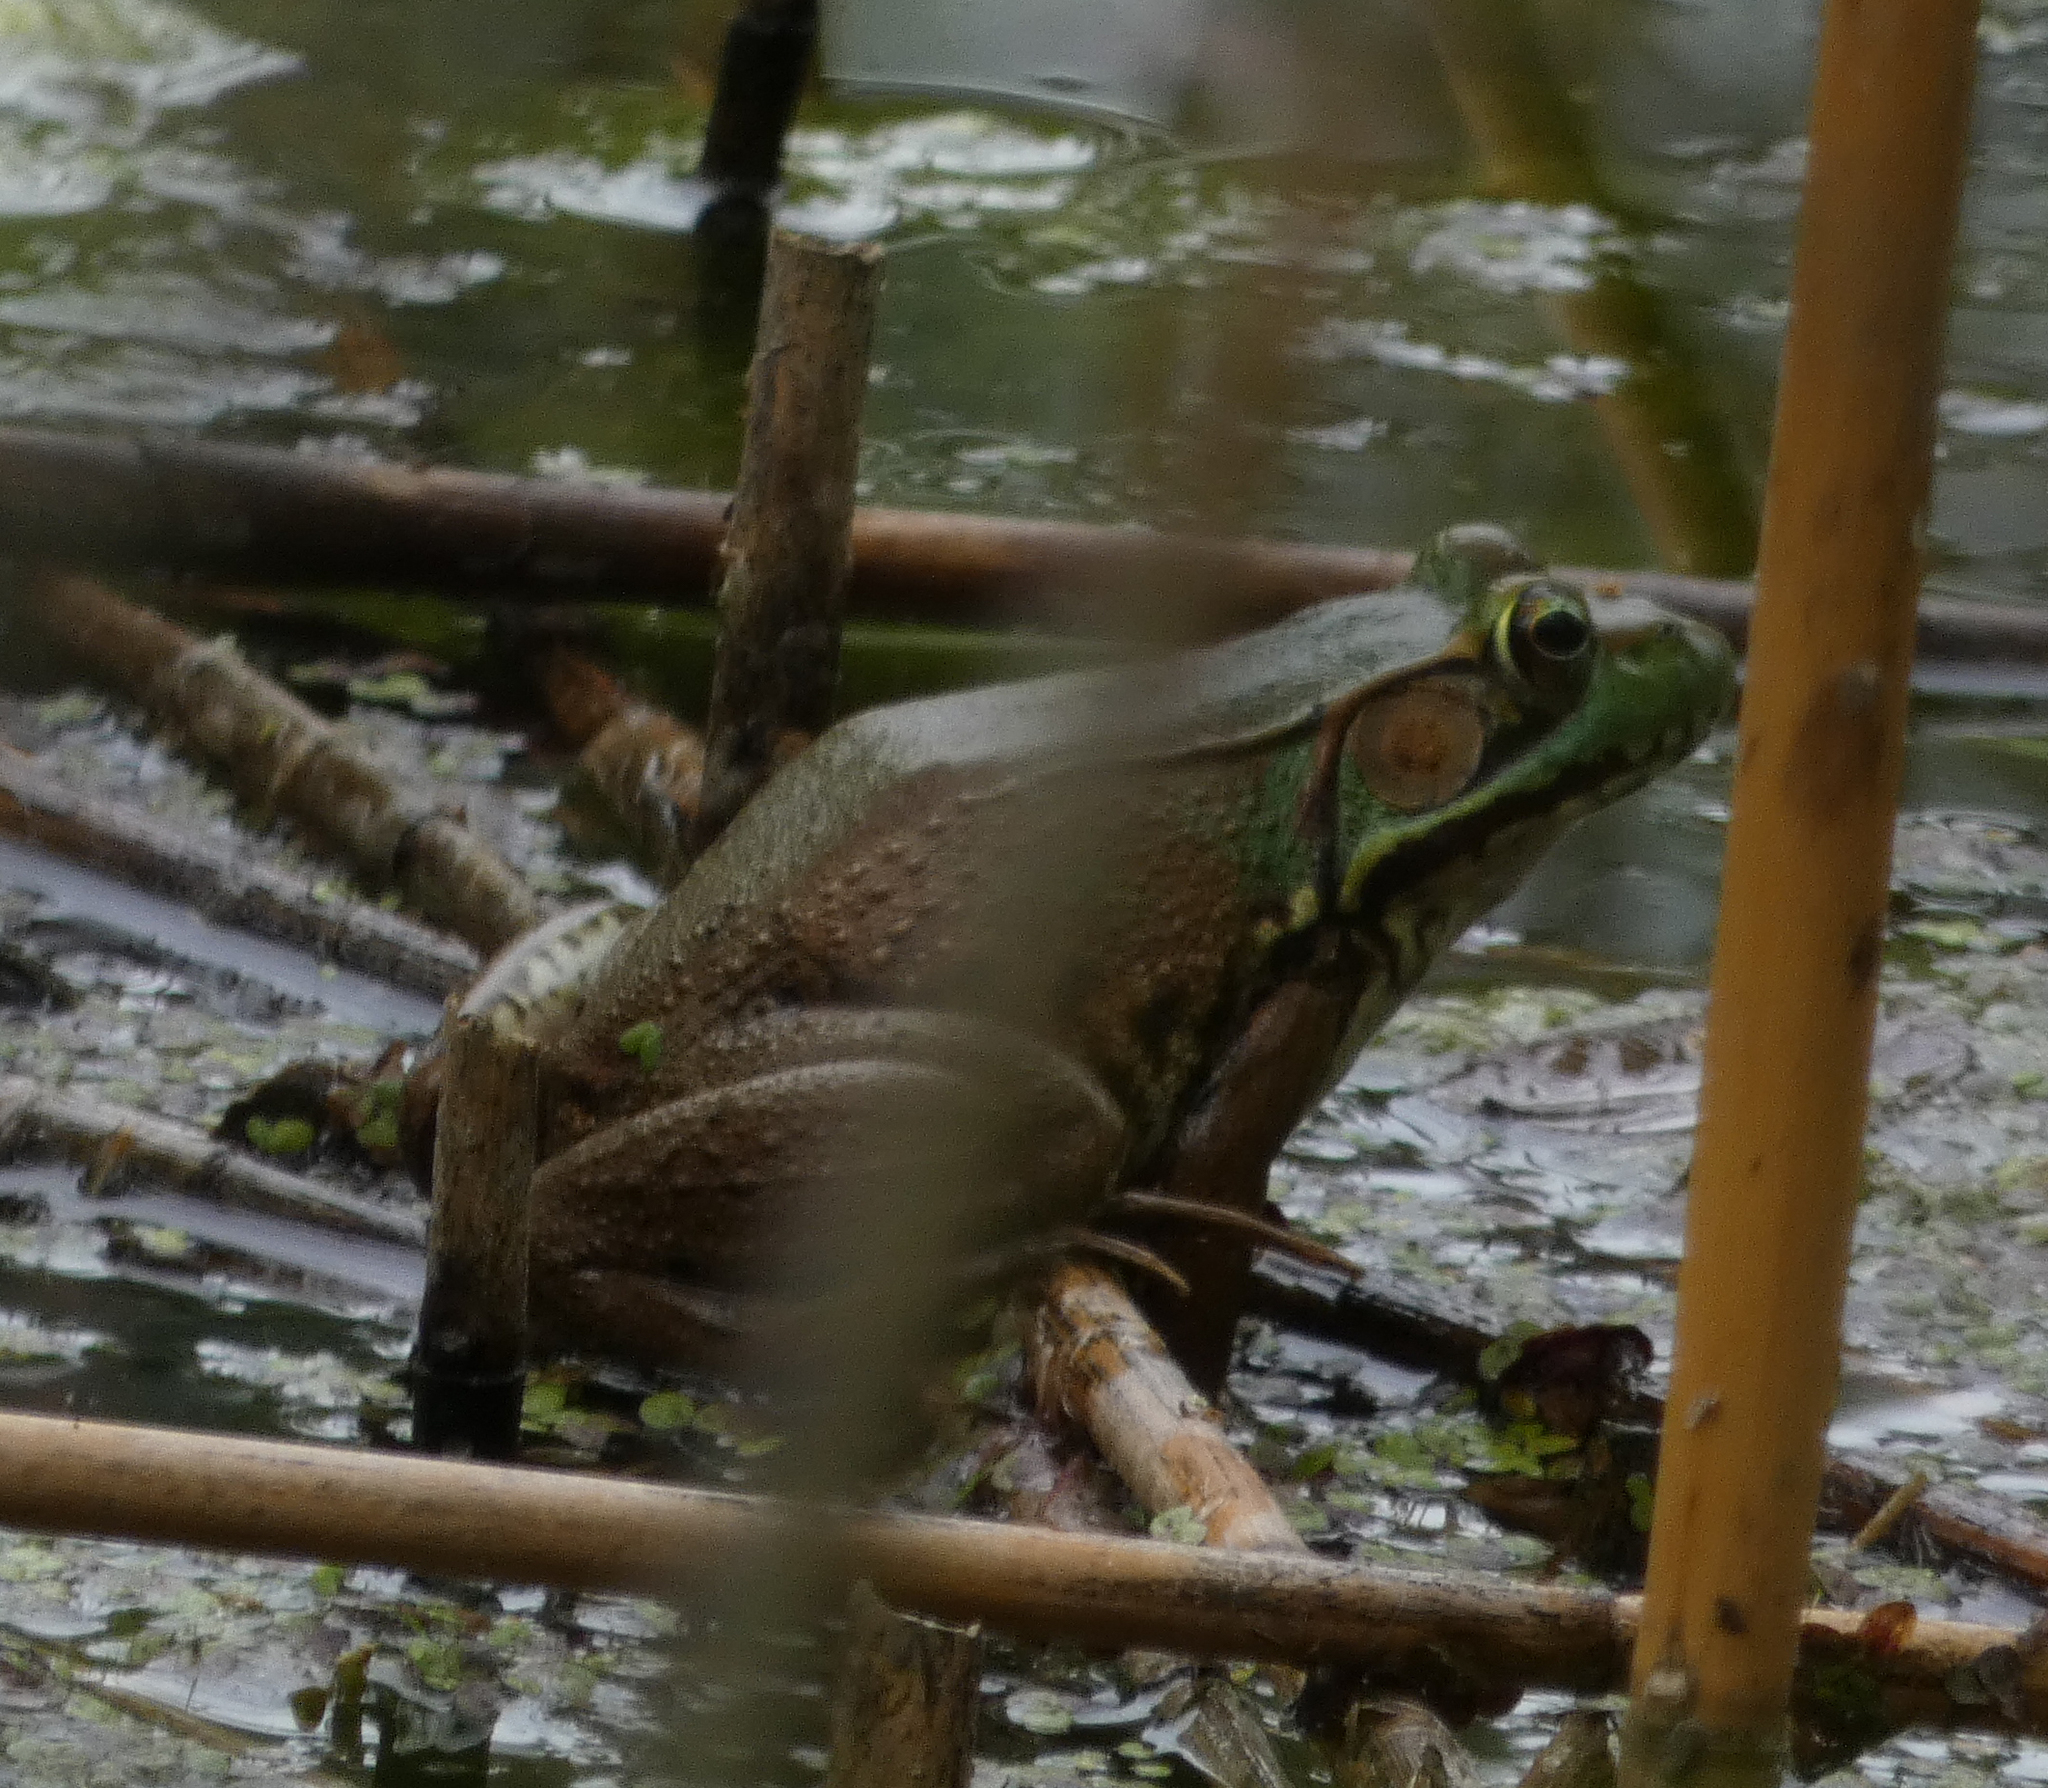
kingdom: Animalia
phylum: Chordata
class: Amphibia
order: Anura
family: Ranidae
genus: Lithobates
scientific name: Lithobates clamitans
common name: Green frog
